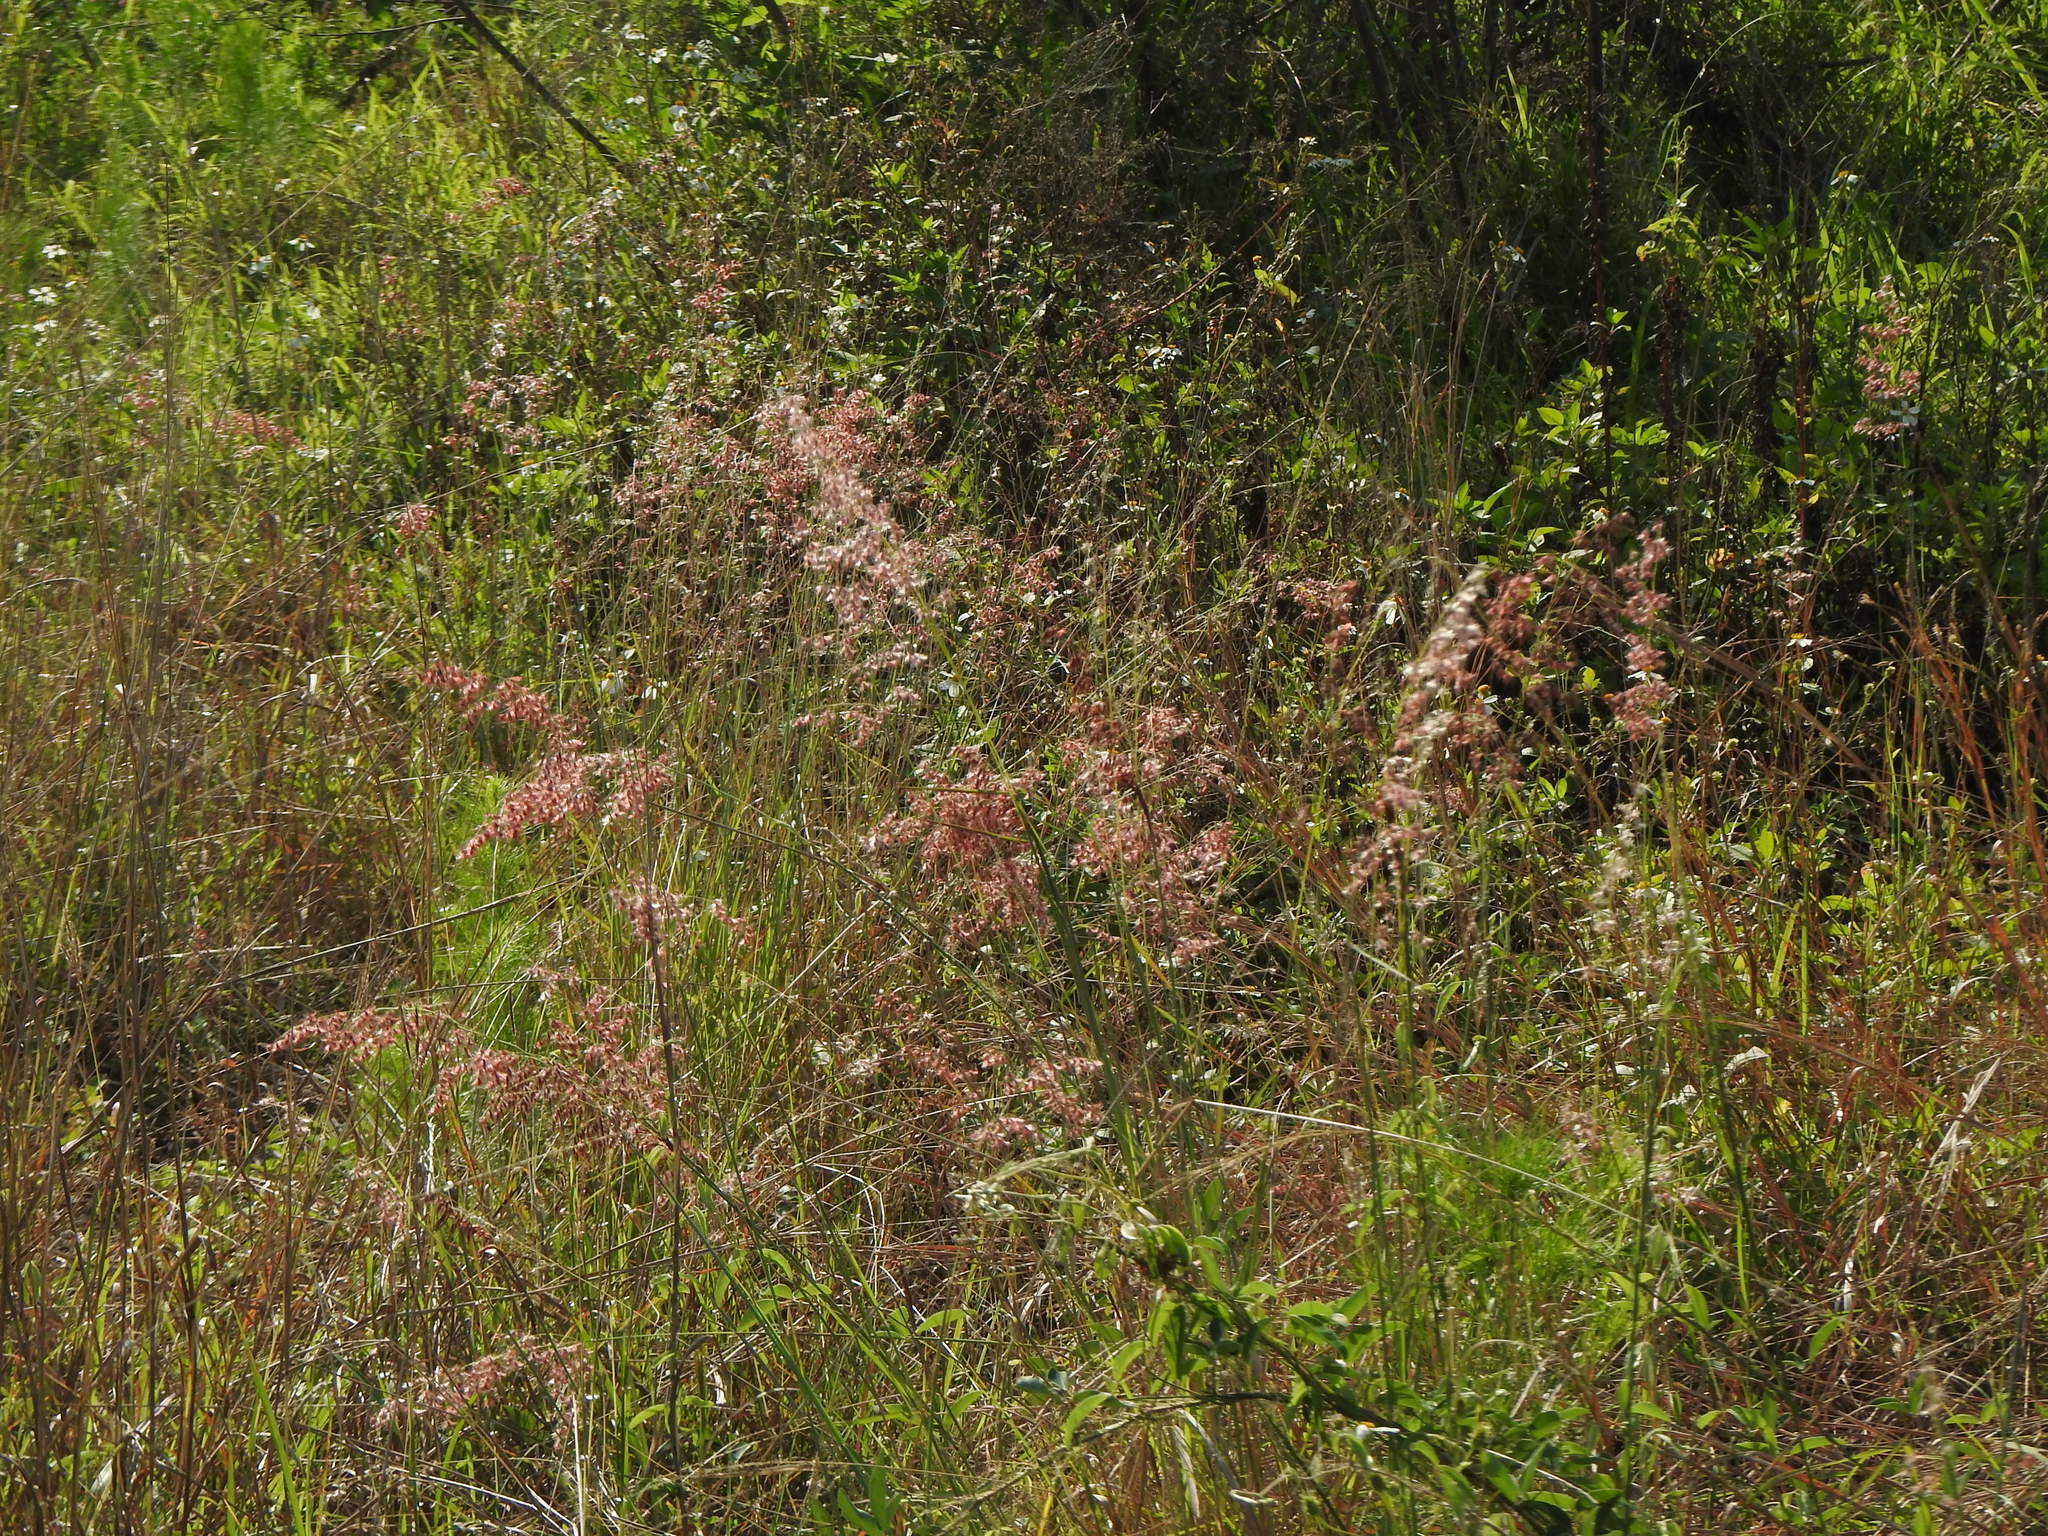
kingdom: Plantae
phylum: Tracheophyta
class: Liliopsida
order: Poales
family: Poaceae
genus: Melinis
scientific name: Melinis repens
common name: Rose natal grass
